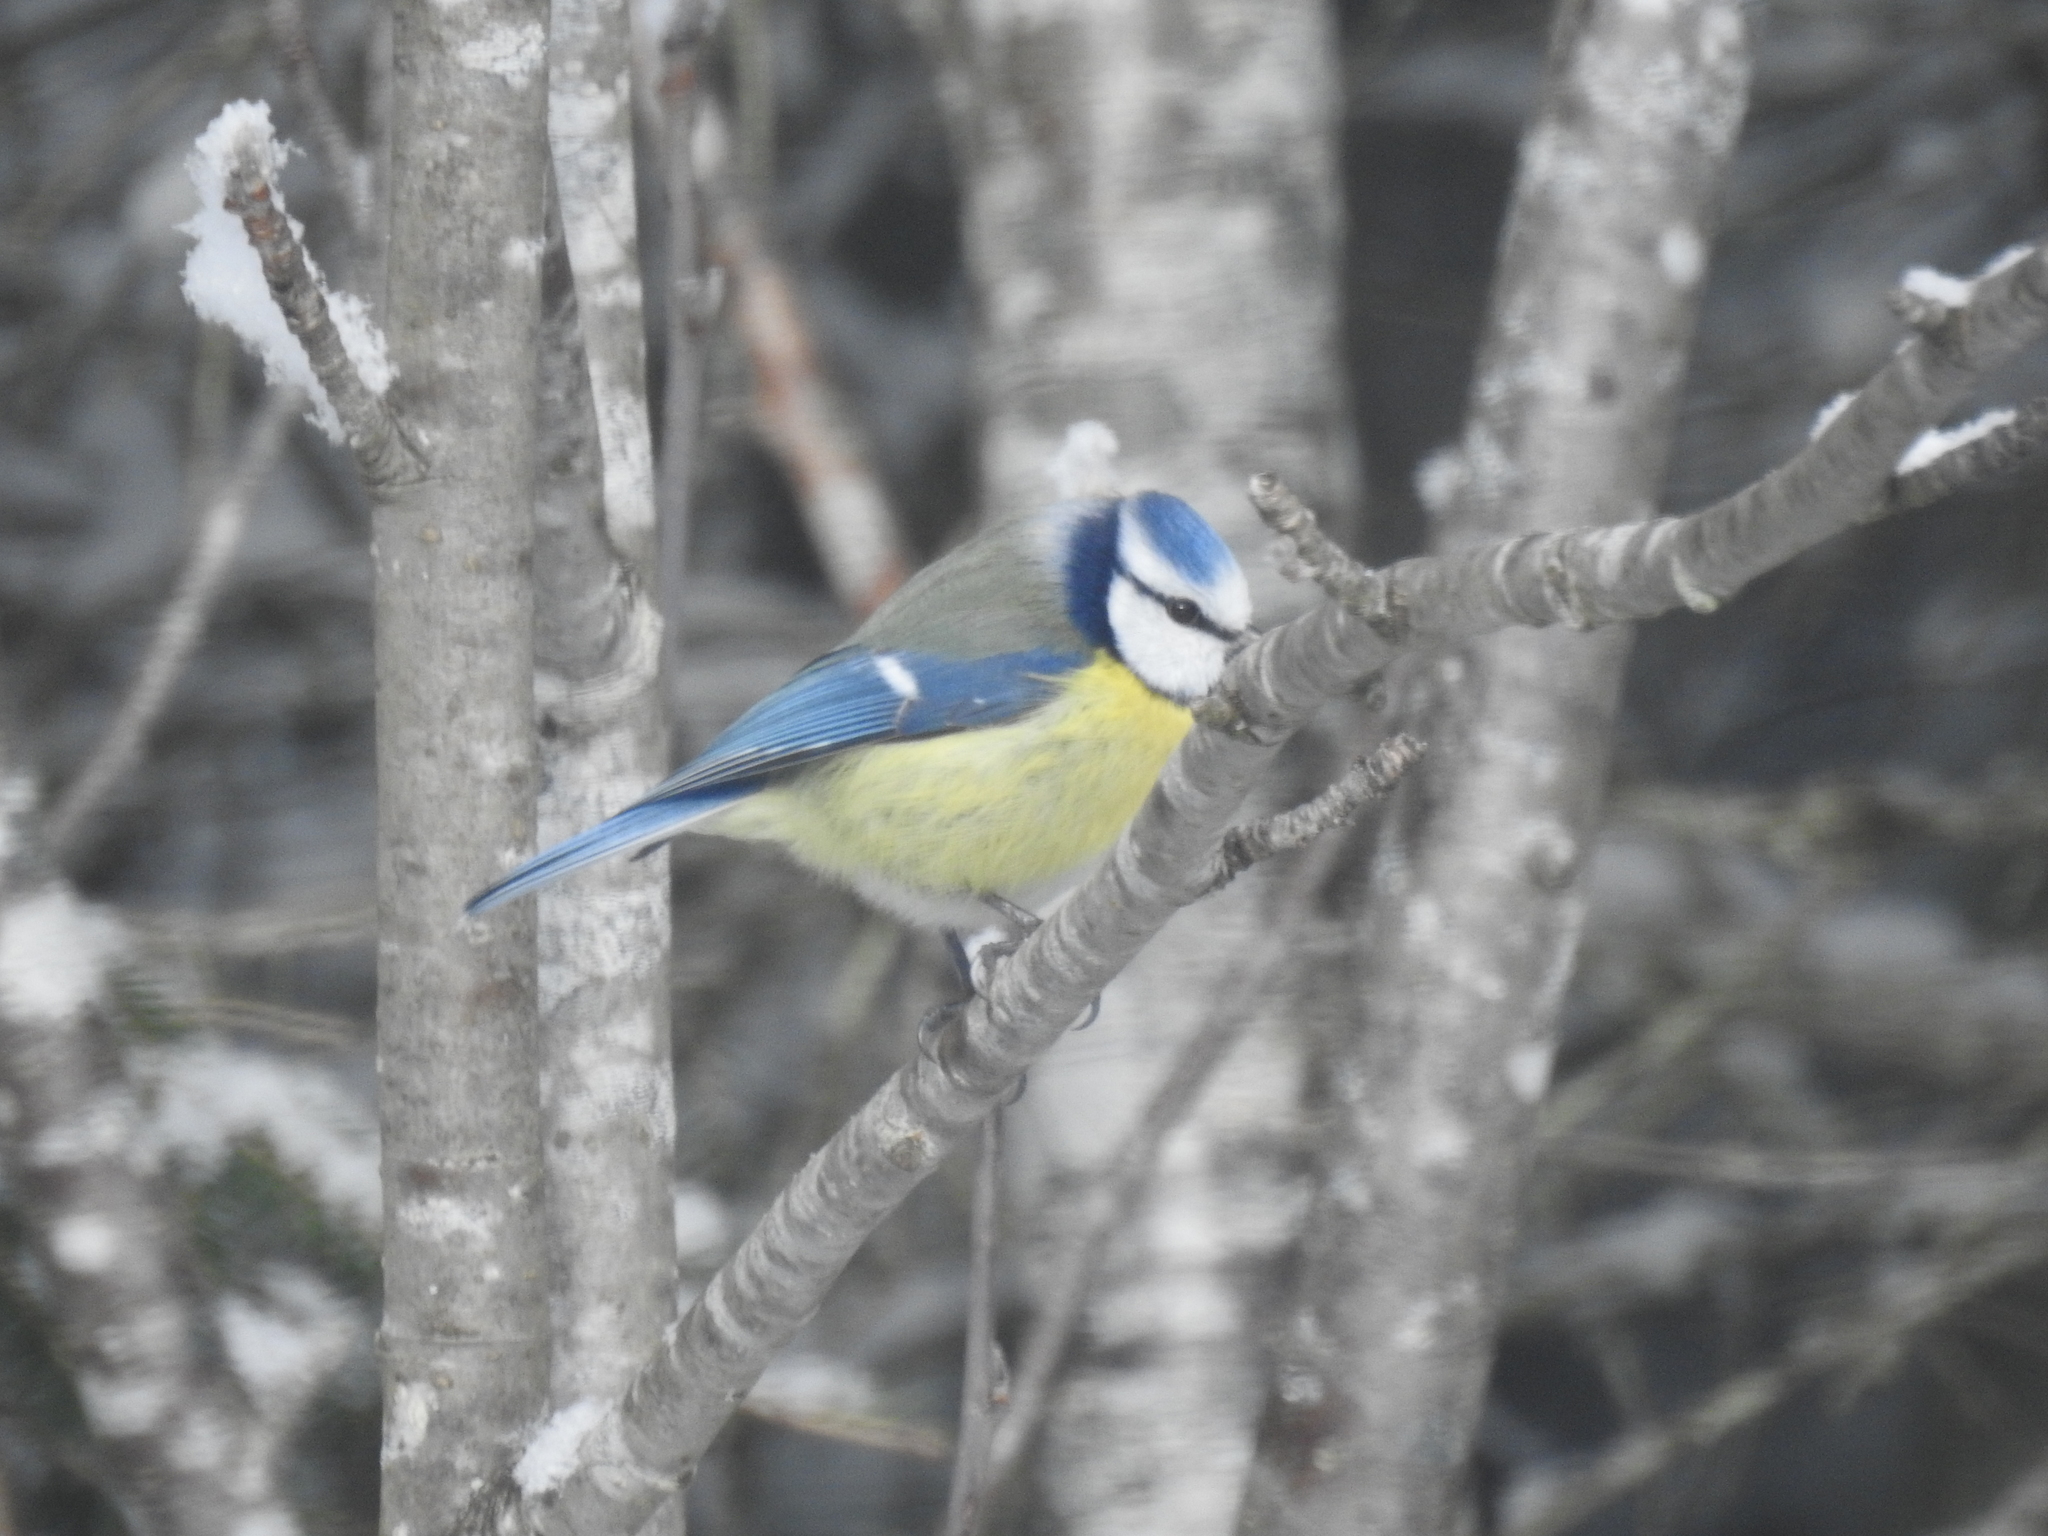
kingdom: Animalia
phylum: Chordata
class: Aves
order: Passeriformes
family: Paridae
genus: Cyanistes
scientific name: Cyanistes caeruleus
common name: Eurasian blue tit
